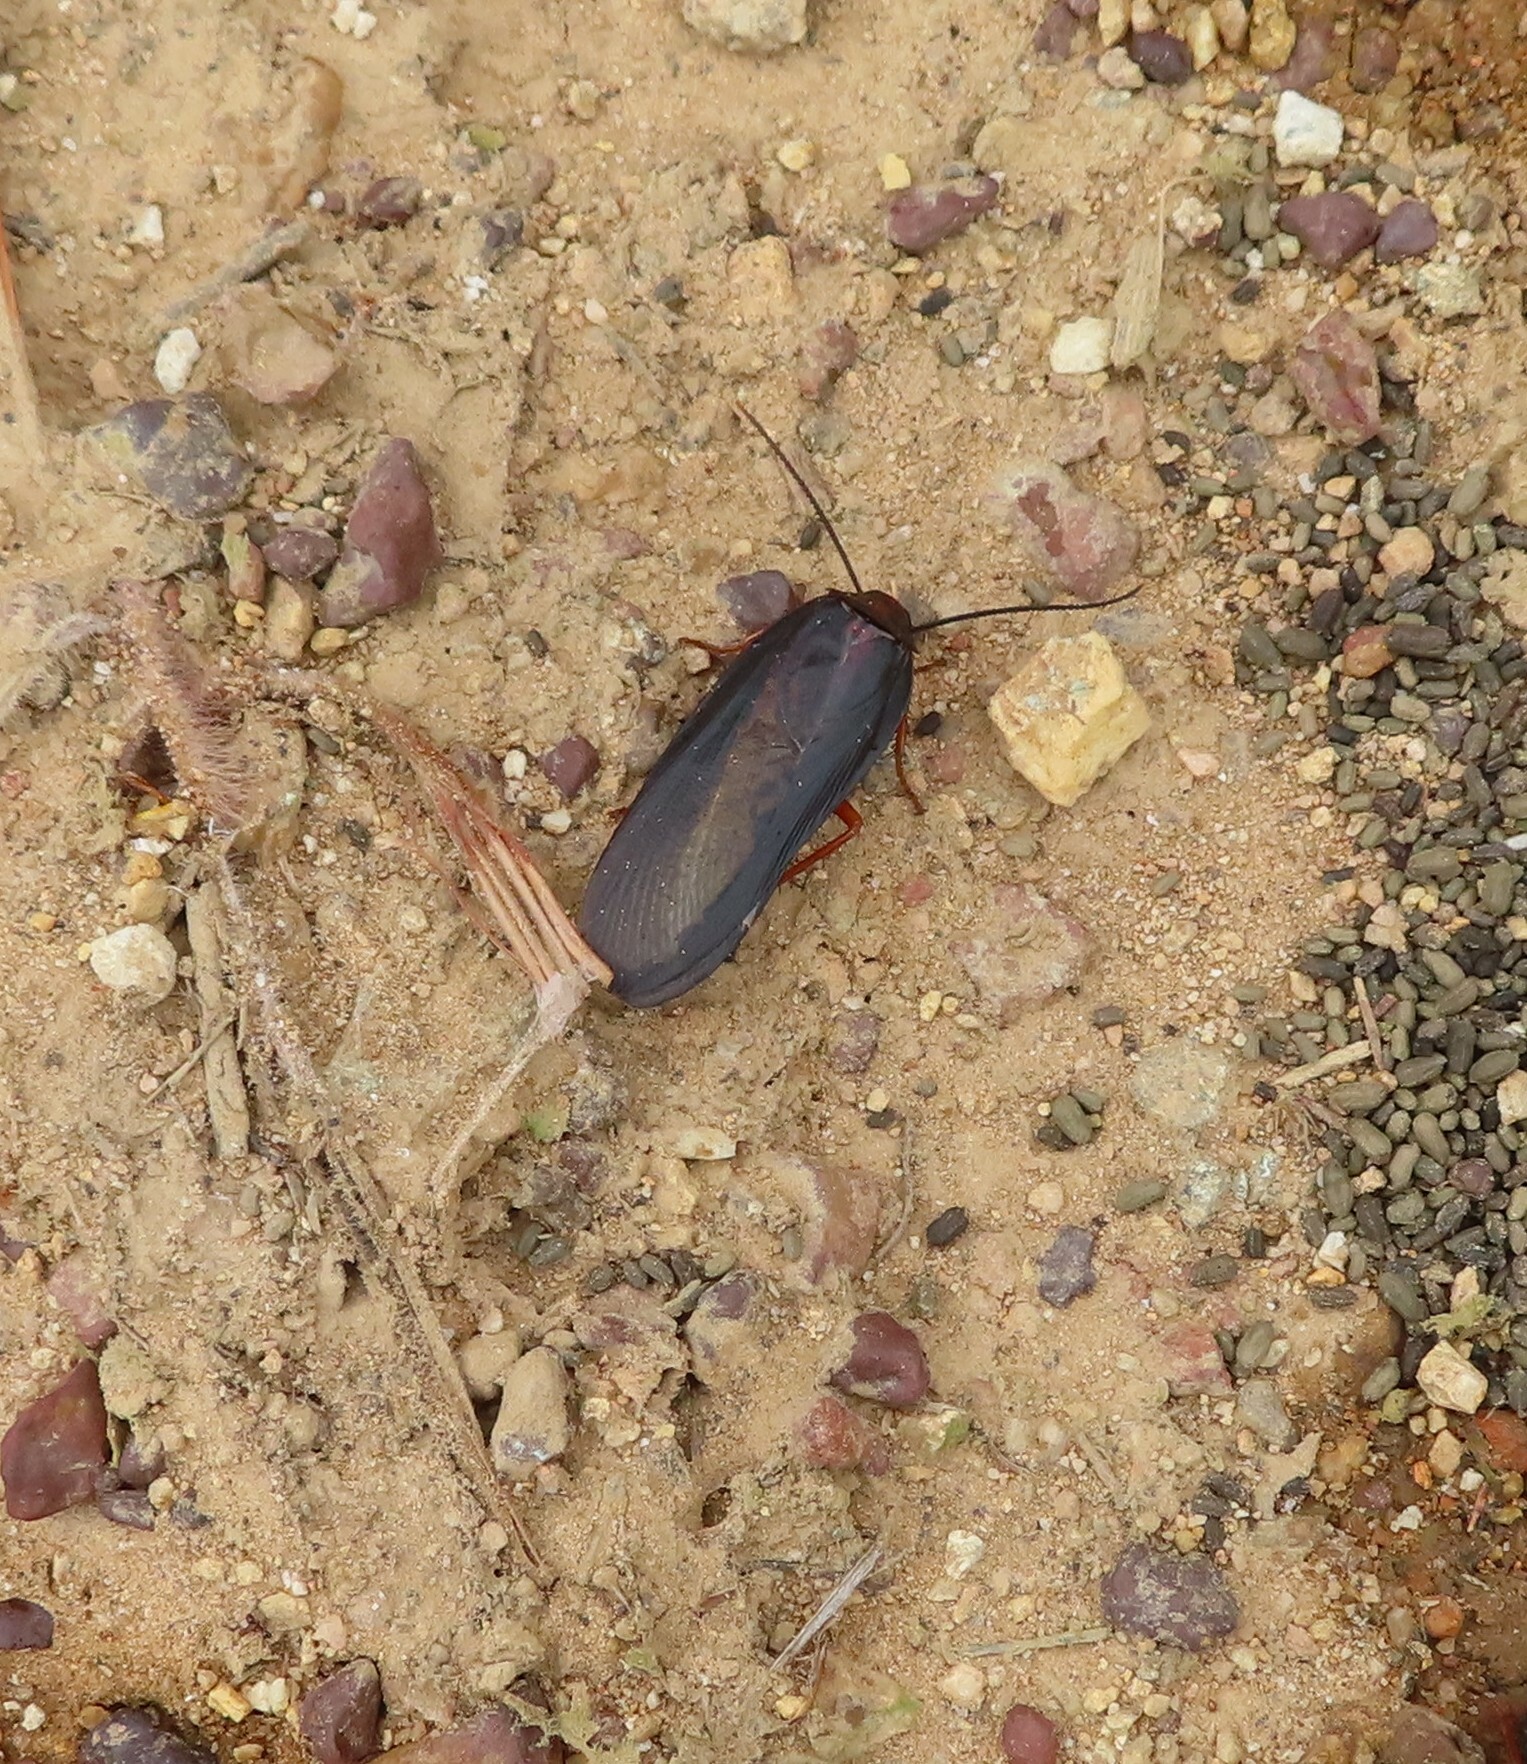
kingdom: Animalia
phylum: Arthropoda
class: Insecta
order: Blattodea
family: Blattidae
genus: Deropeltis
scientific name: Deropeltis erythrocephala
